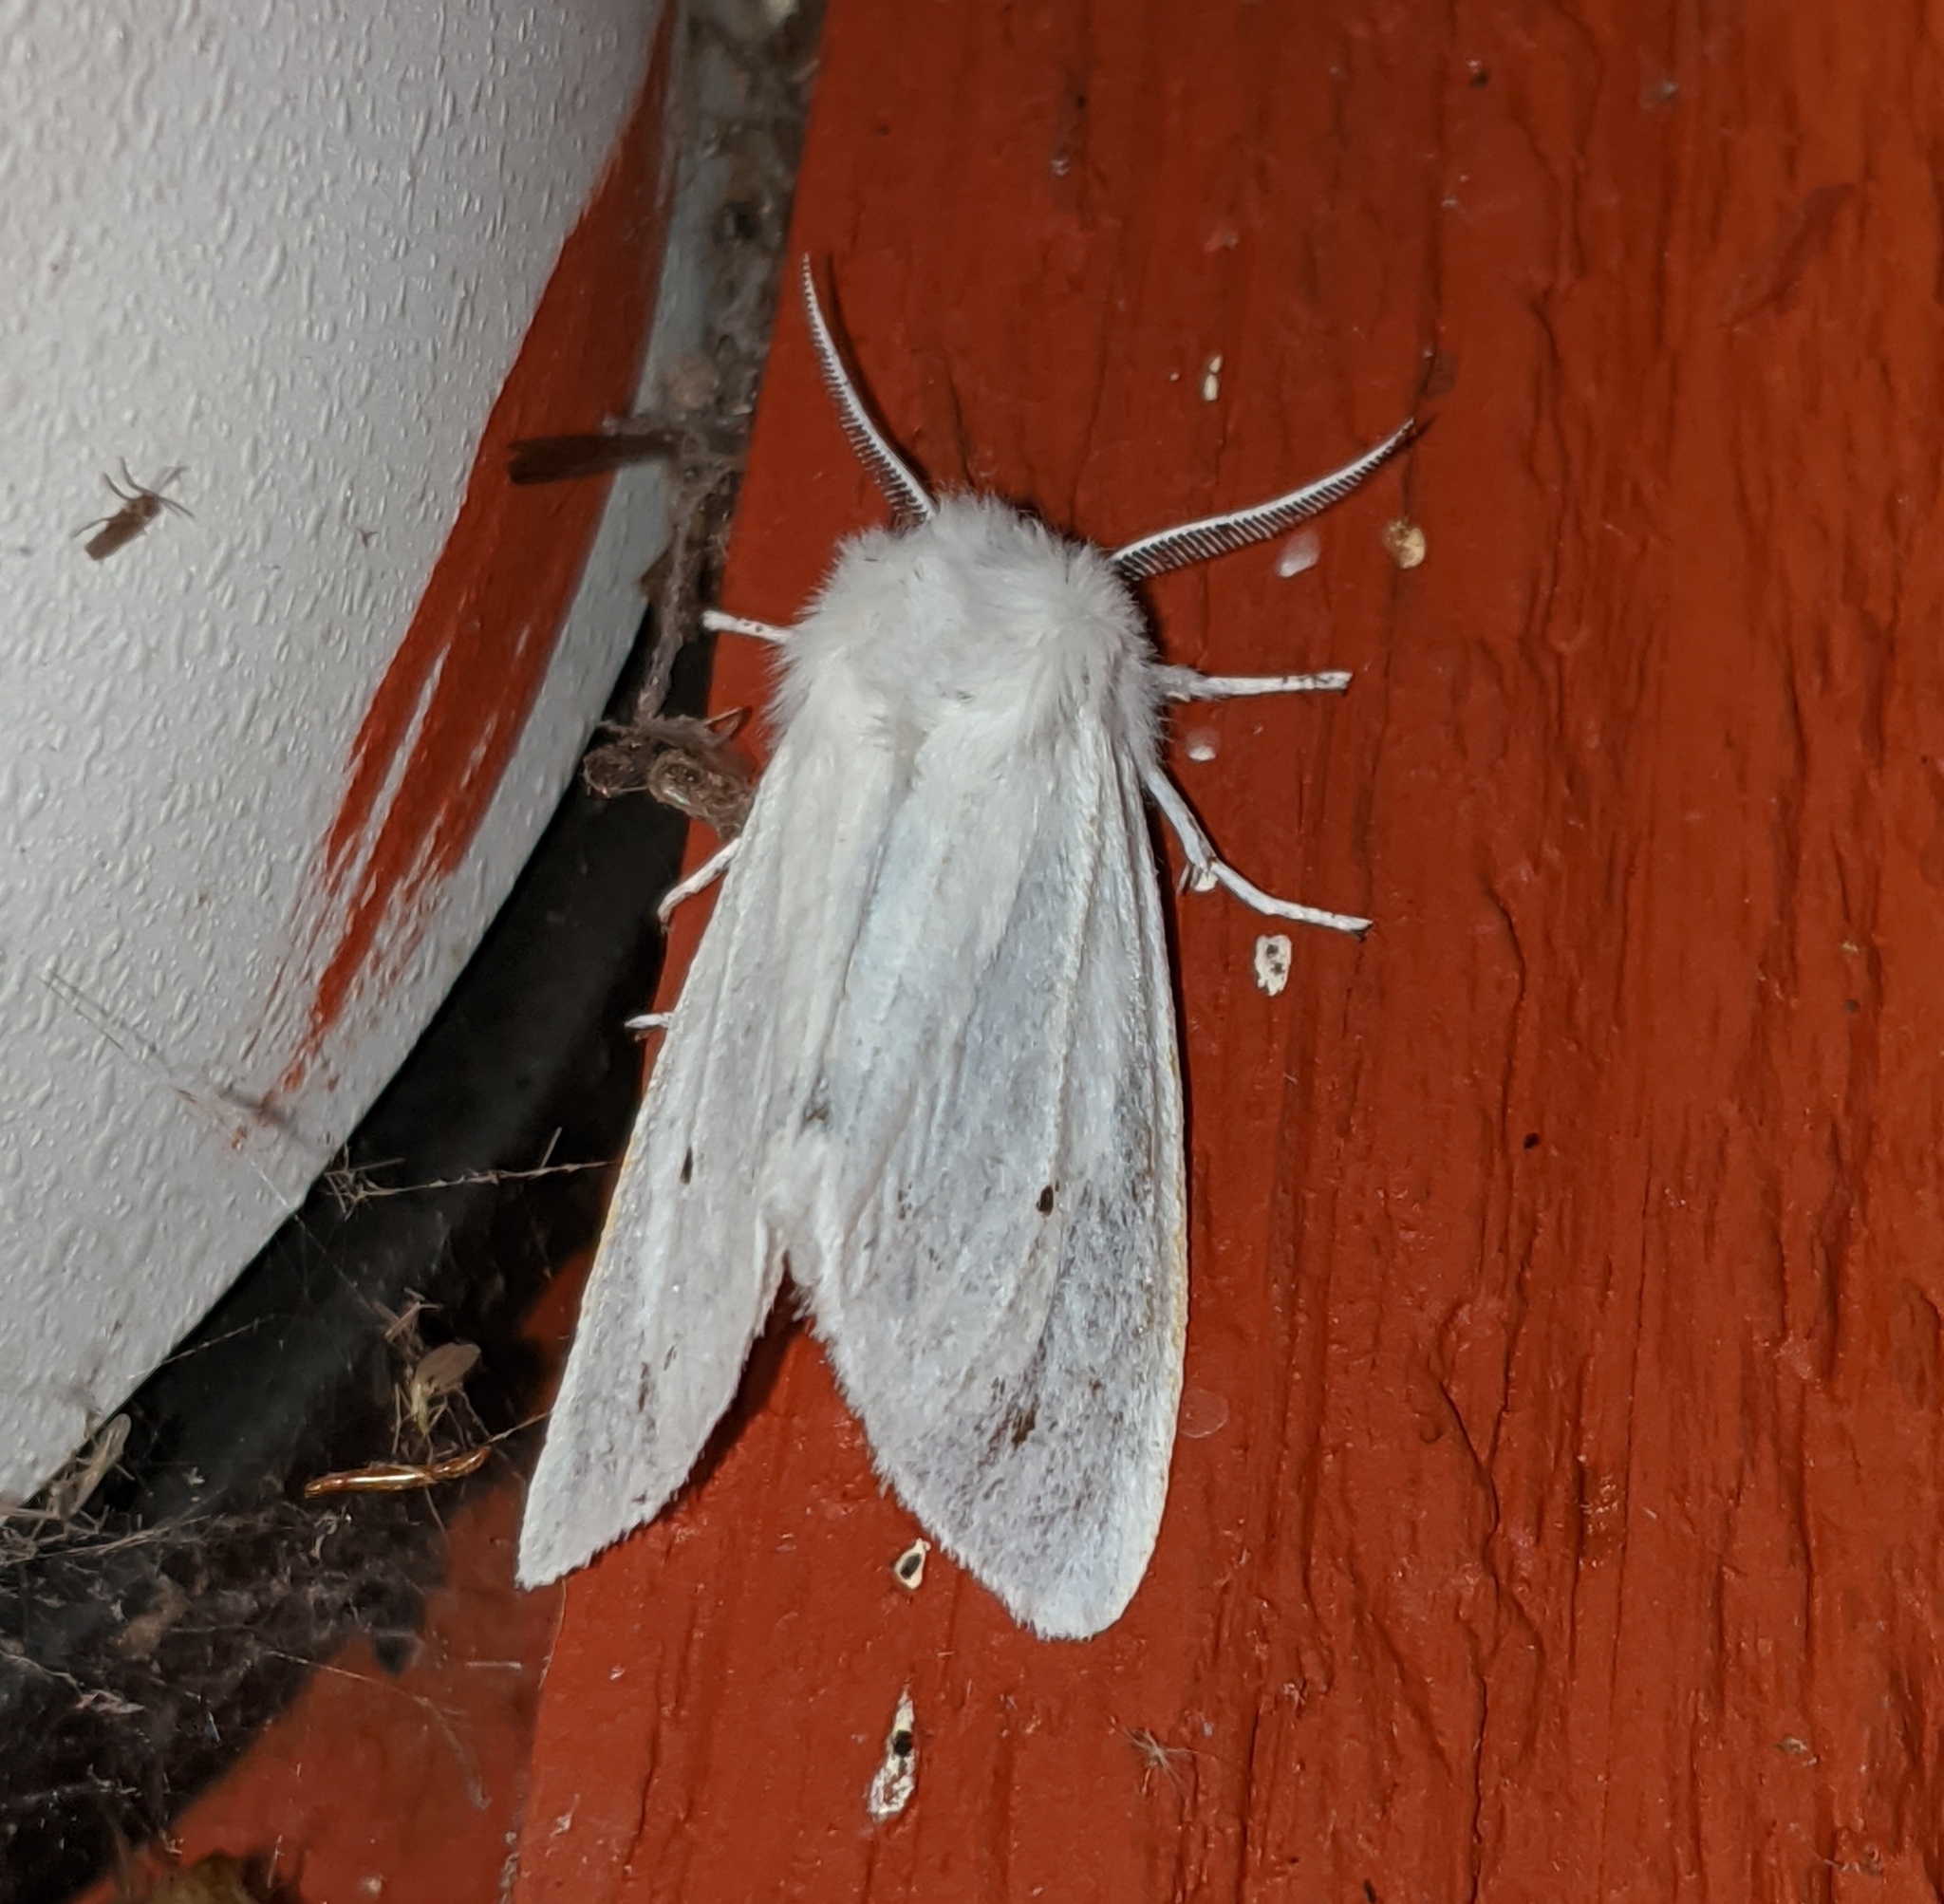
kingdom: Animalia
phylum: Arthropoda
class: Insecta
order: Lepidoptera
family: Erebidae
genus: Spilosoma
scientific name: Spilosoma virginica
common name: Virginia tiger moth
